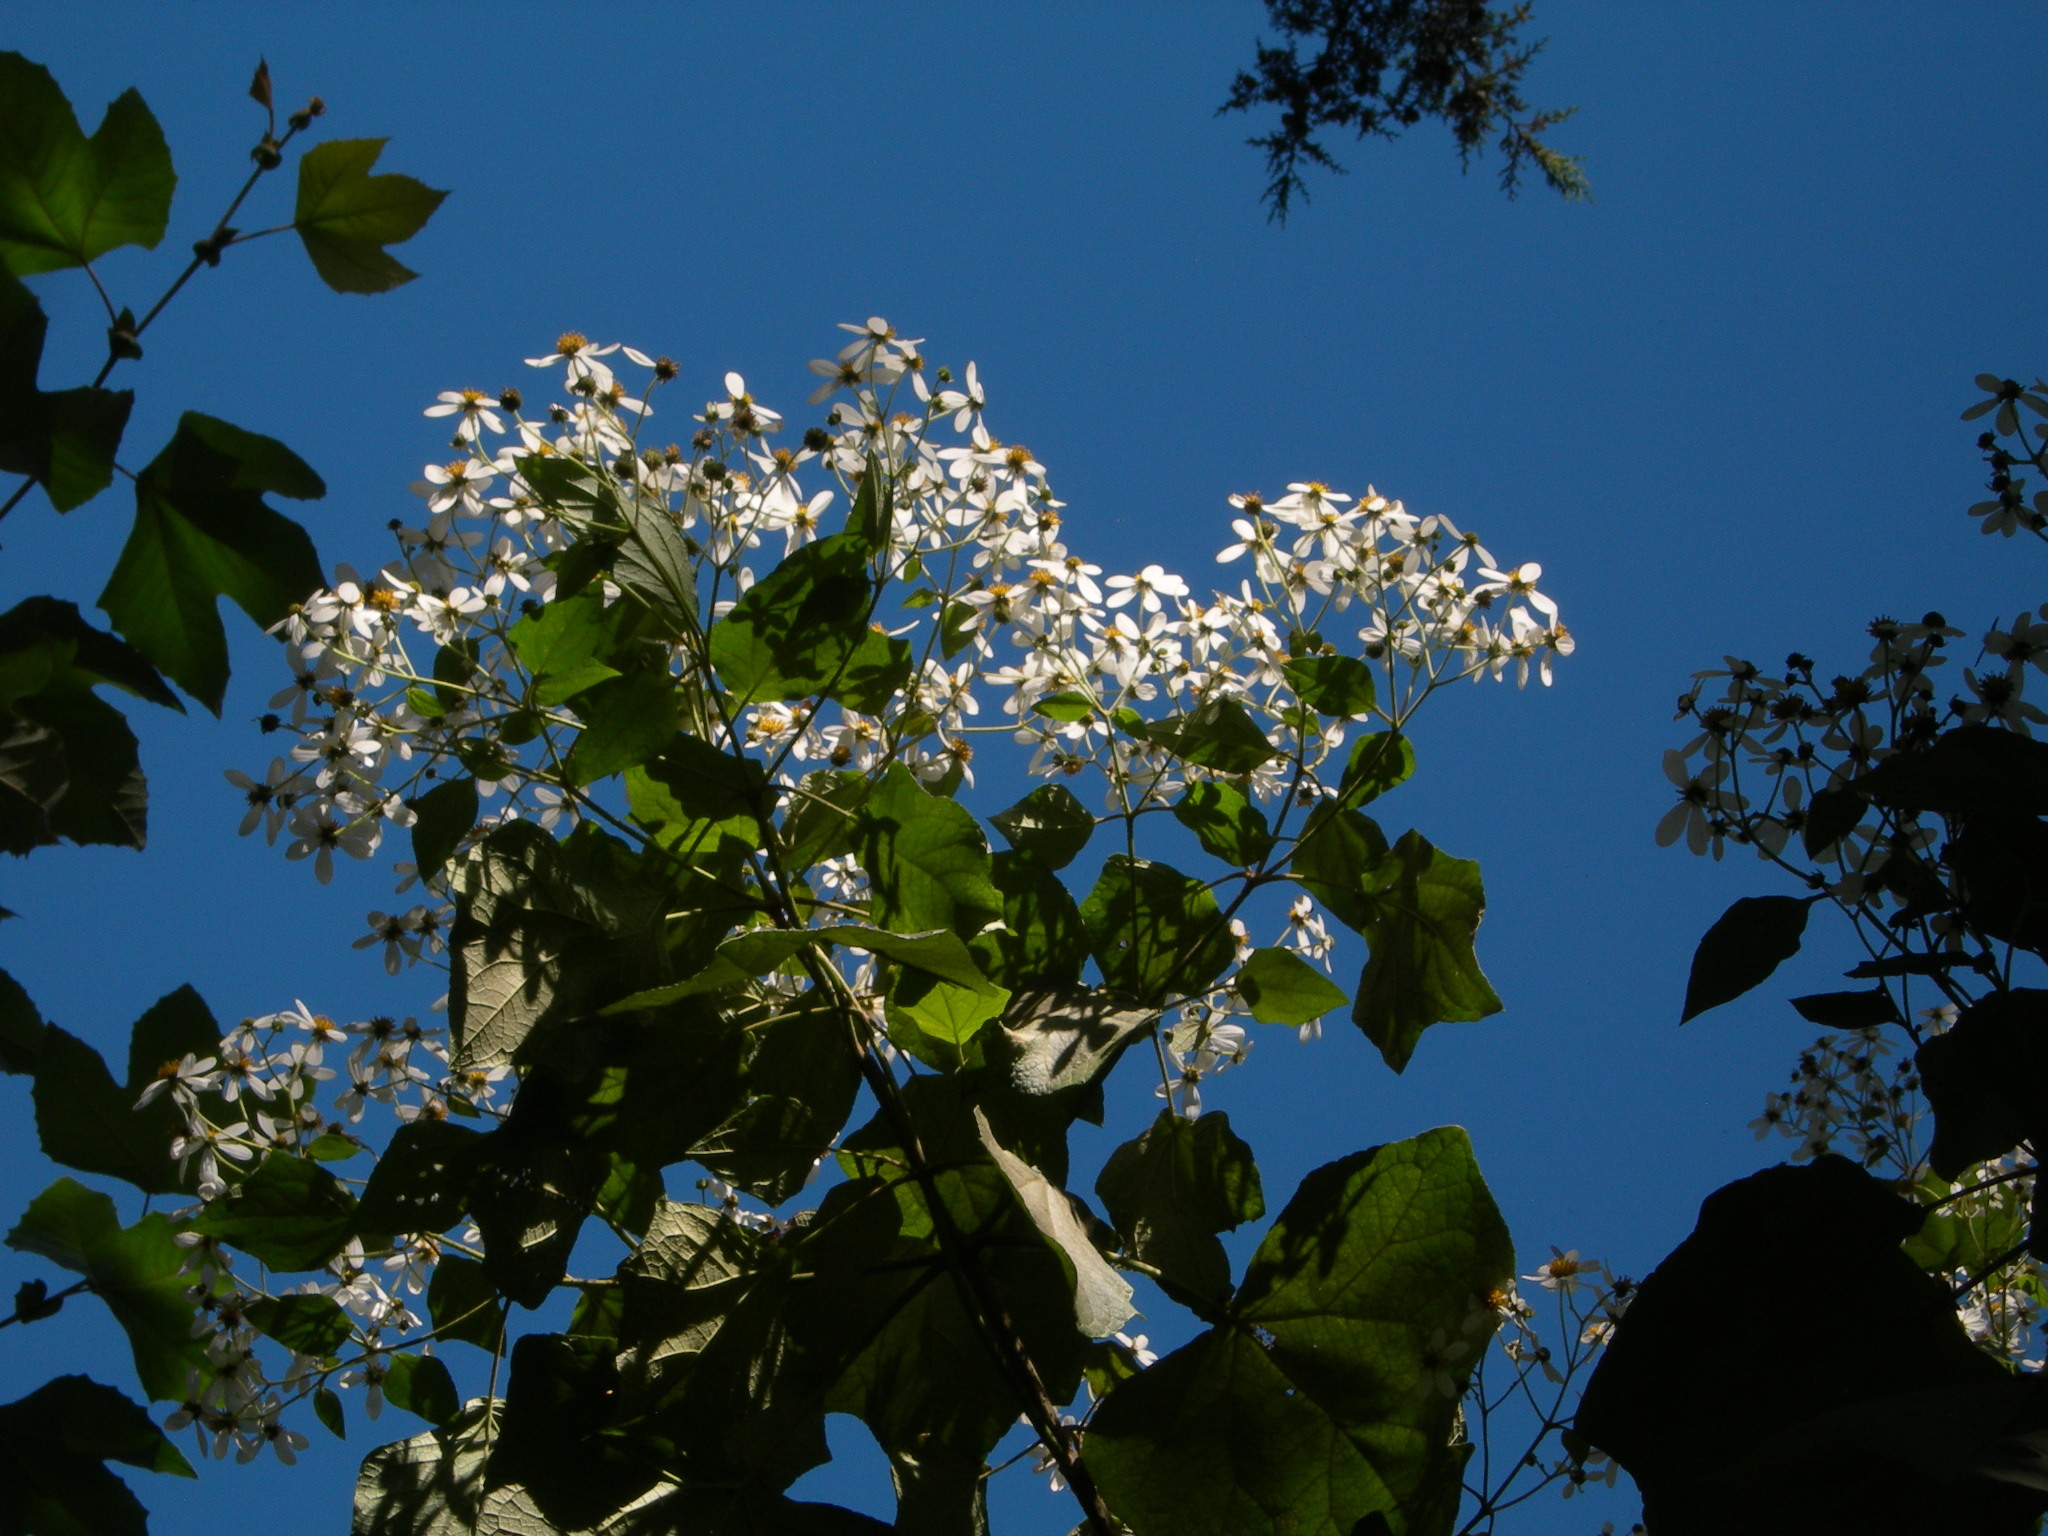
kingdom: Plantae
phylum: Tracheophyta
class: Magnoliopsida
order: Asterales
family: Asteraceae
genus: Montanoa
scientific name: Montanoa leucantha
